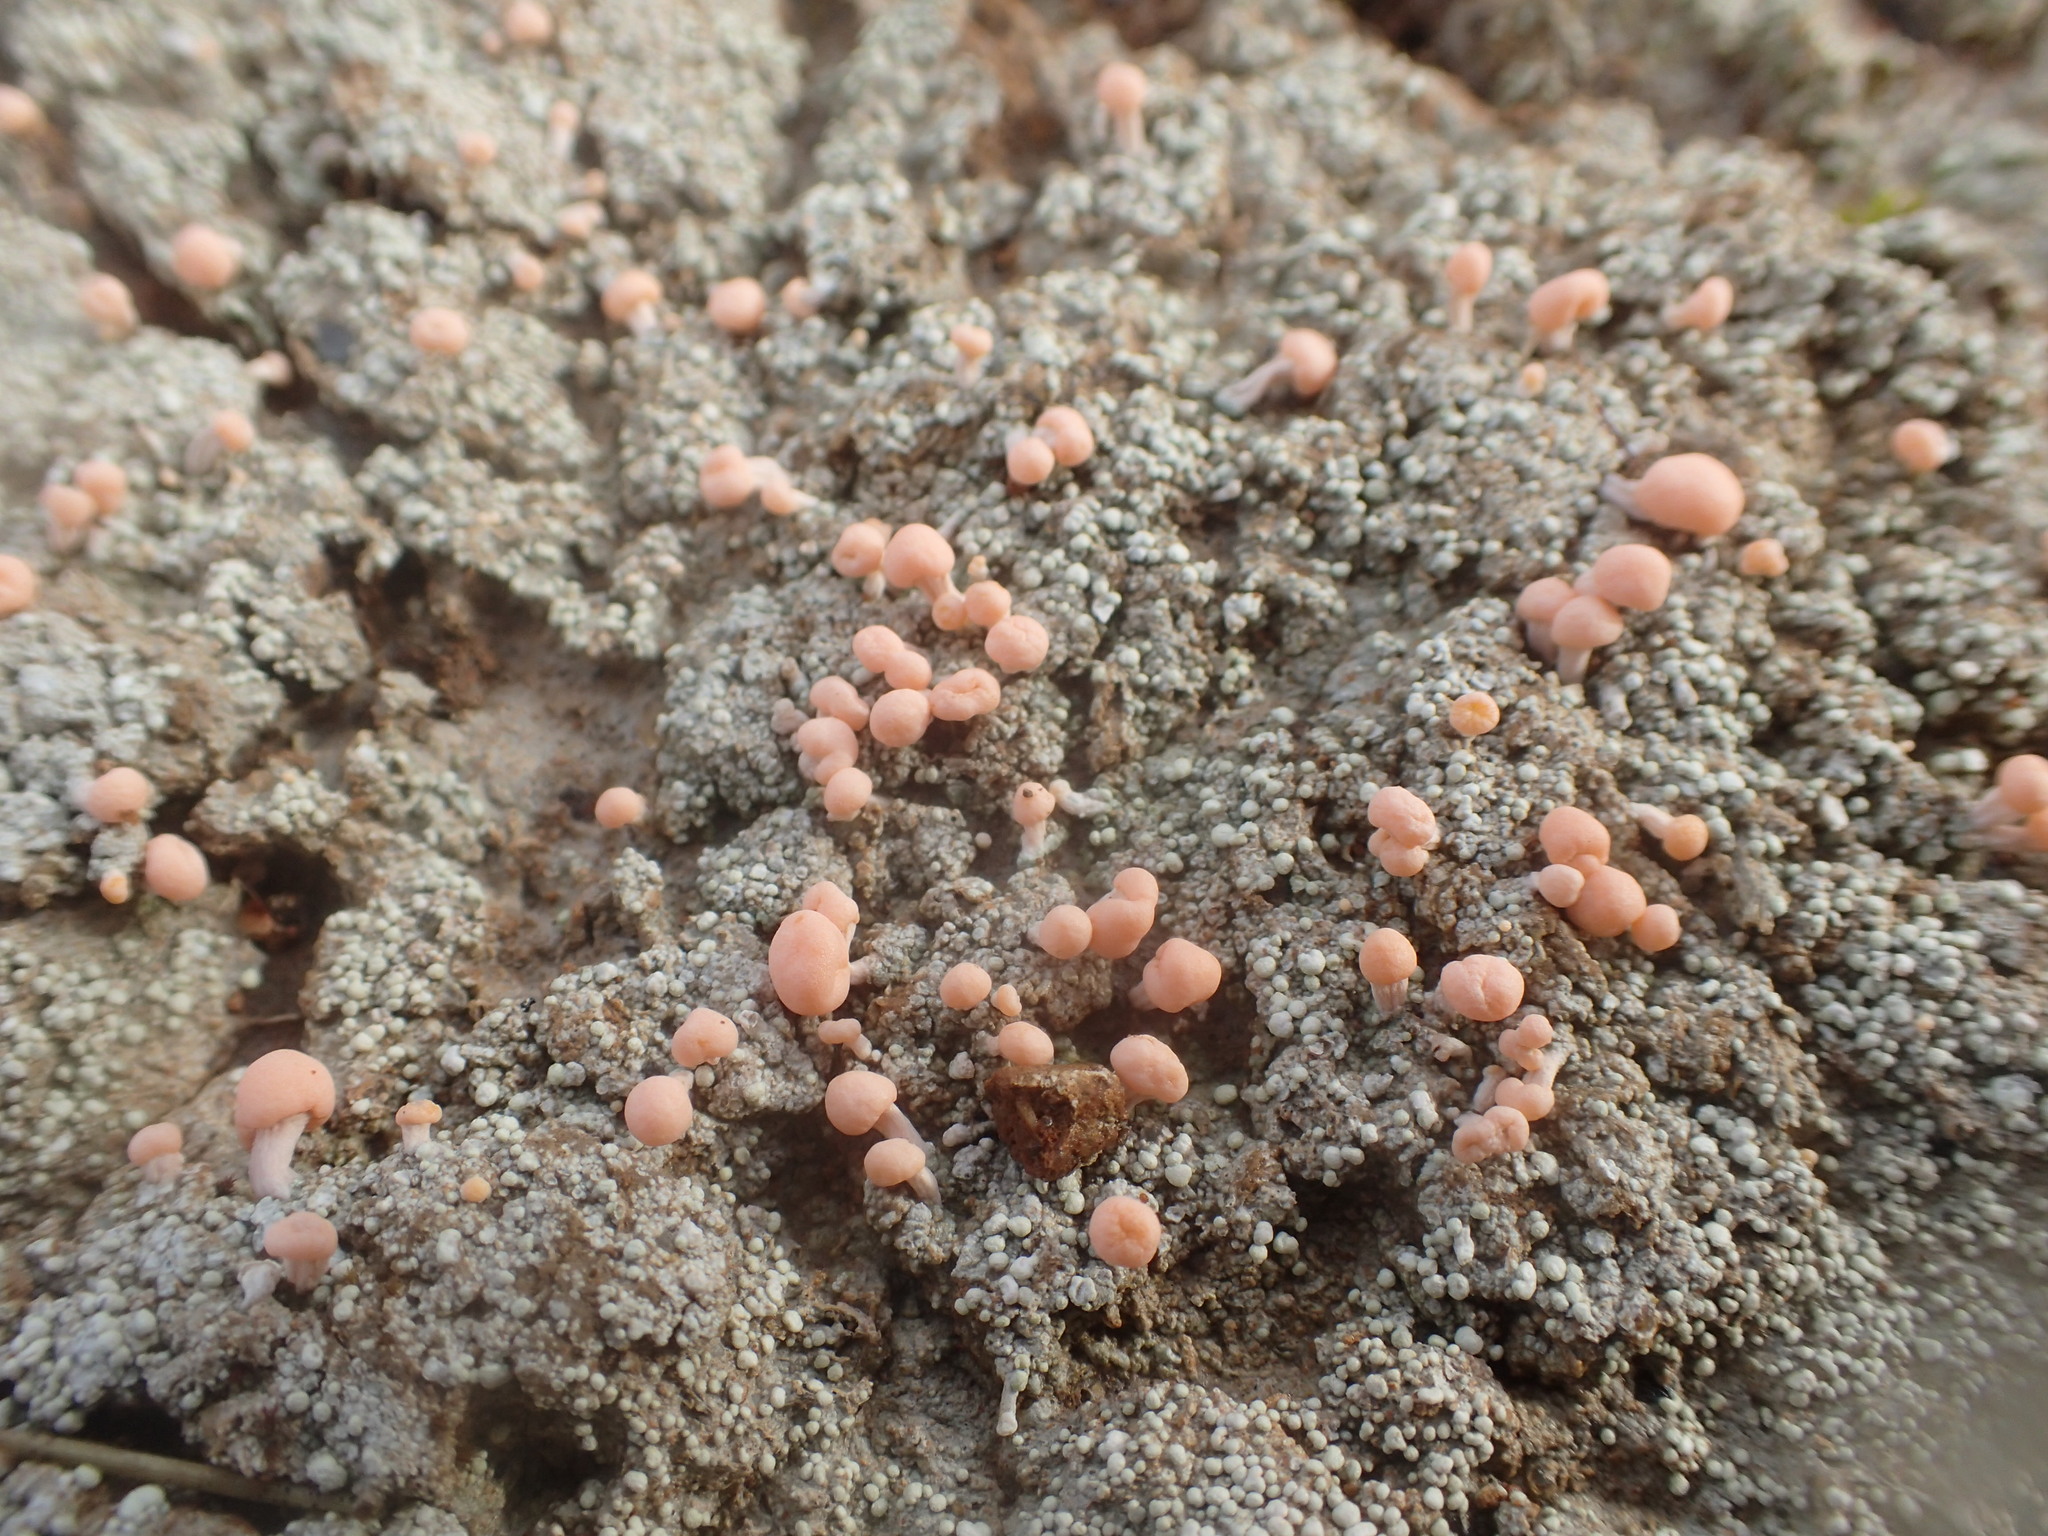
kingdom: Fungi
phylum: Ascomycota
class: Lecanoromycetes
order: Pertusariales
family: Icmadophilaceae
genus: Dibaeis
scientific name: Dibaeis baeomyces
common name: Pink earth lichen
